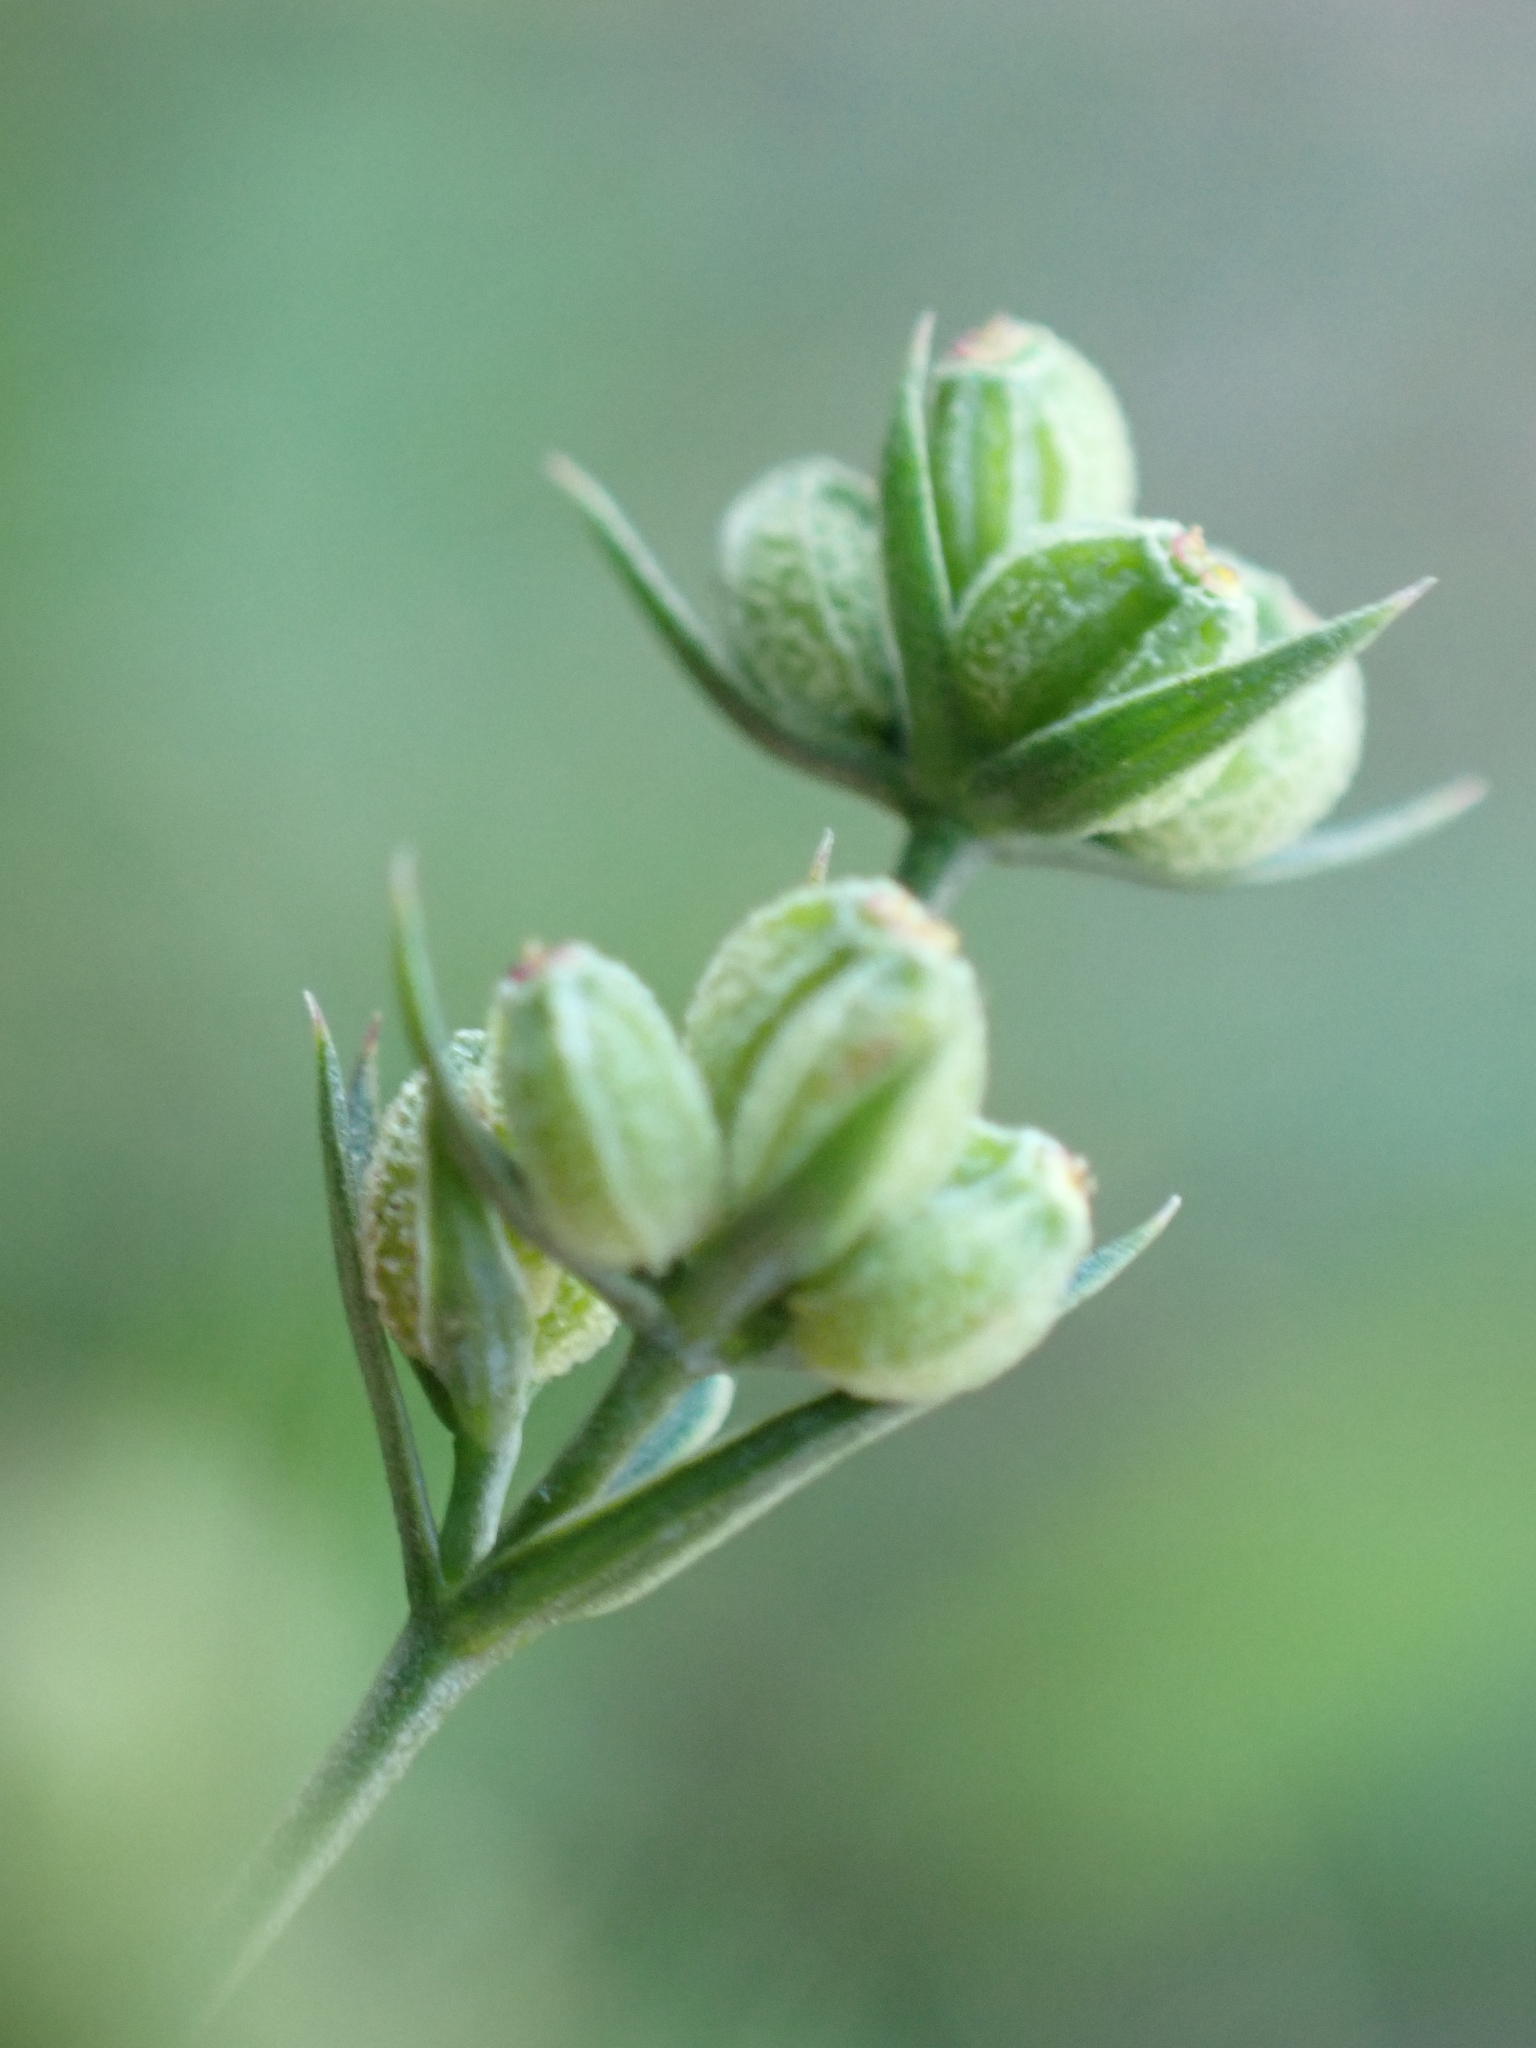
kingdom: Plantae
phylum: Tracheophyta
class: Magnoliopsida
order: Apiales
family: Apiaceae
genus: Bupleurum
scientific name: Bupleurum tenuissimum
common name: Slender hare's-ear
